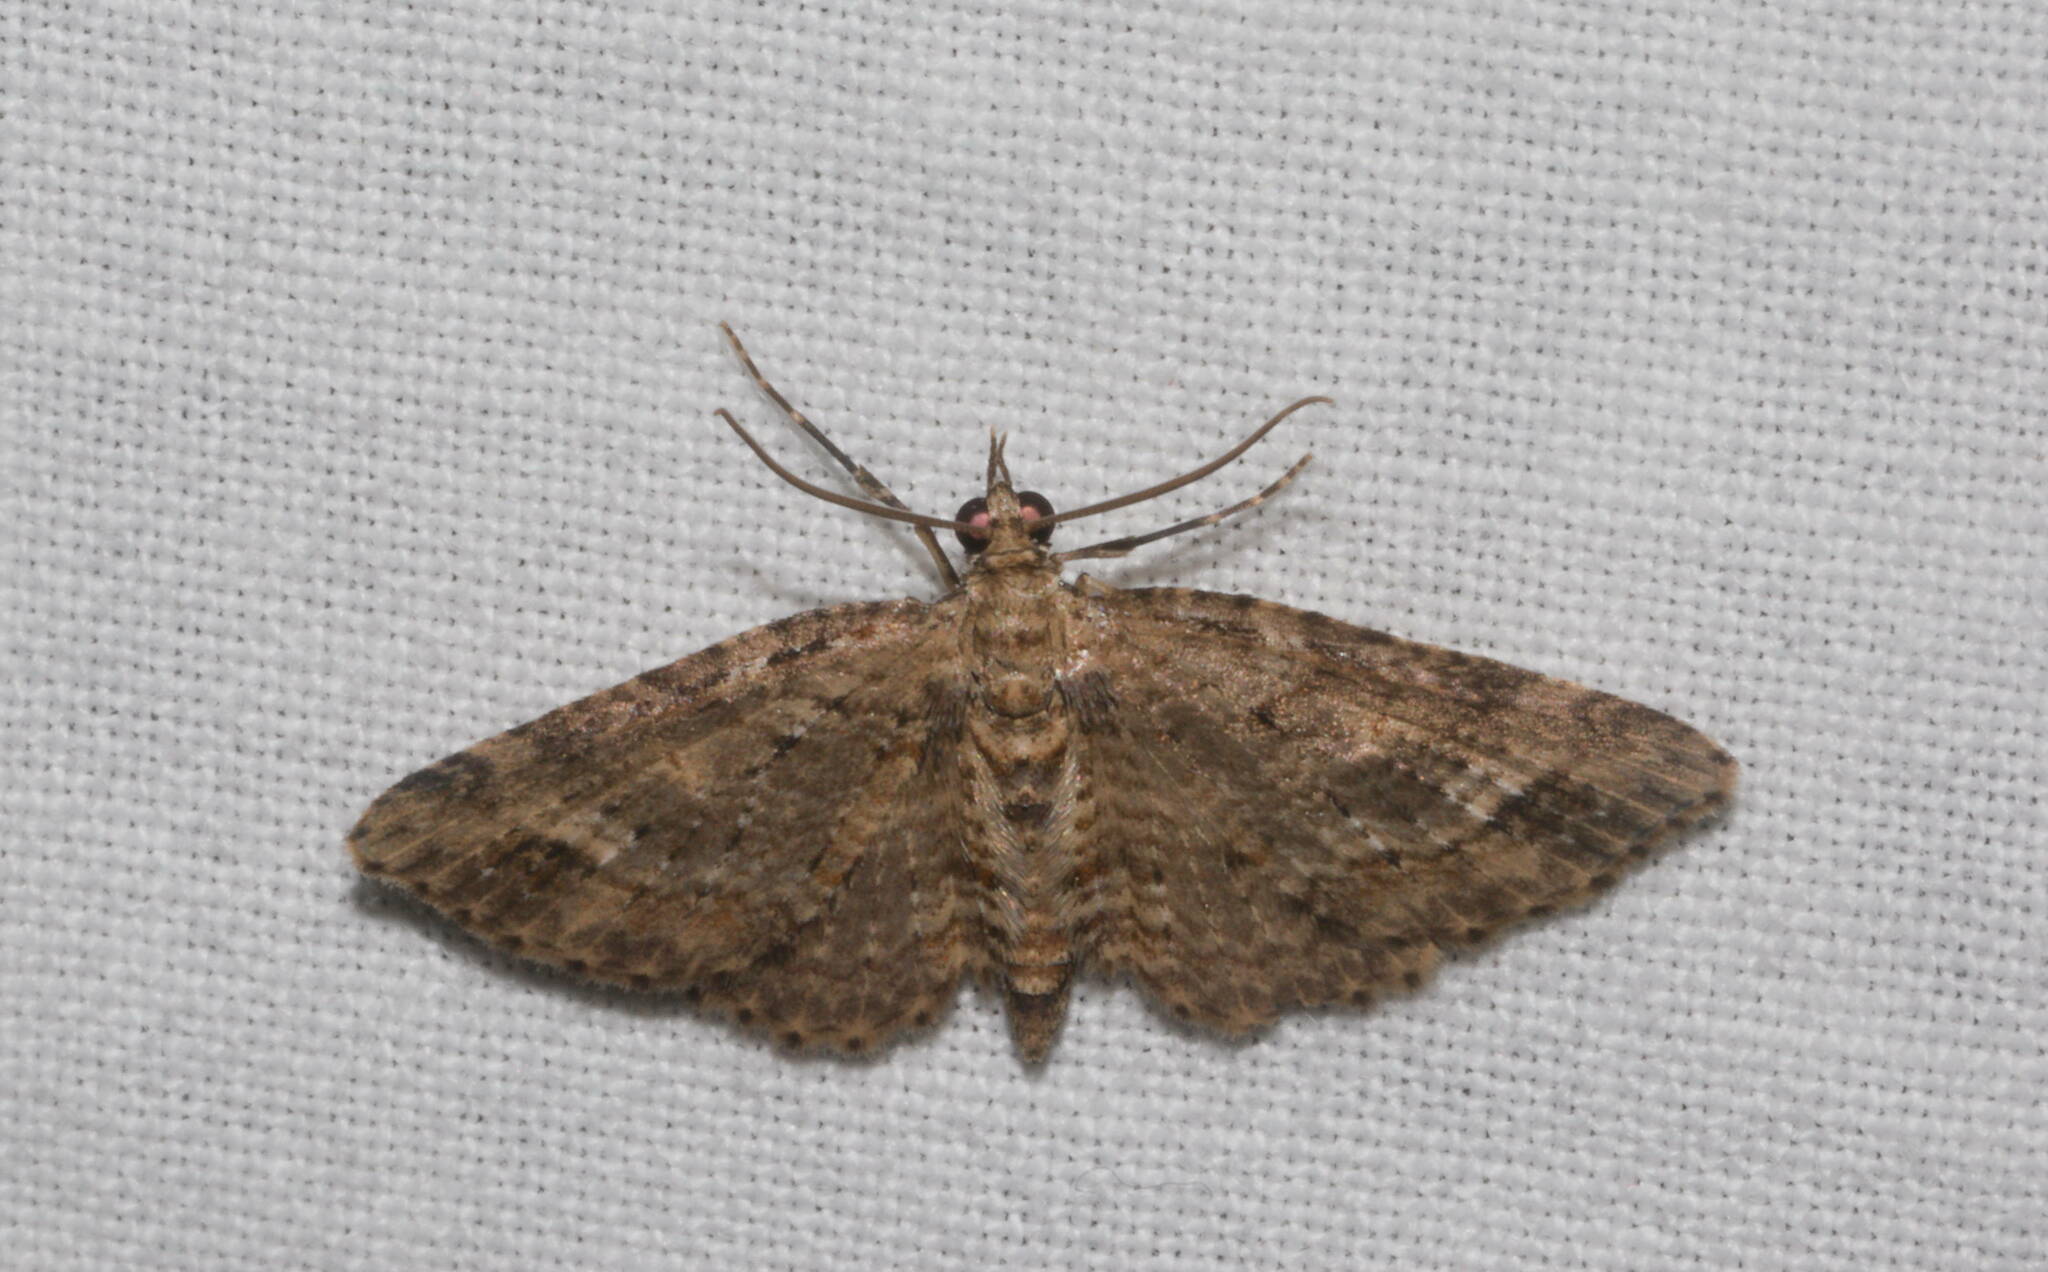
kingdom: Animalia
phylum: Arthropoda
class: Insecta
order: Lepidoptera
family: Geometridae
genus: Eupithecia
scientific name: Eupithecia monticolens
